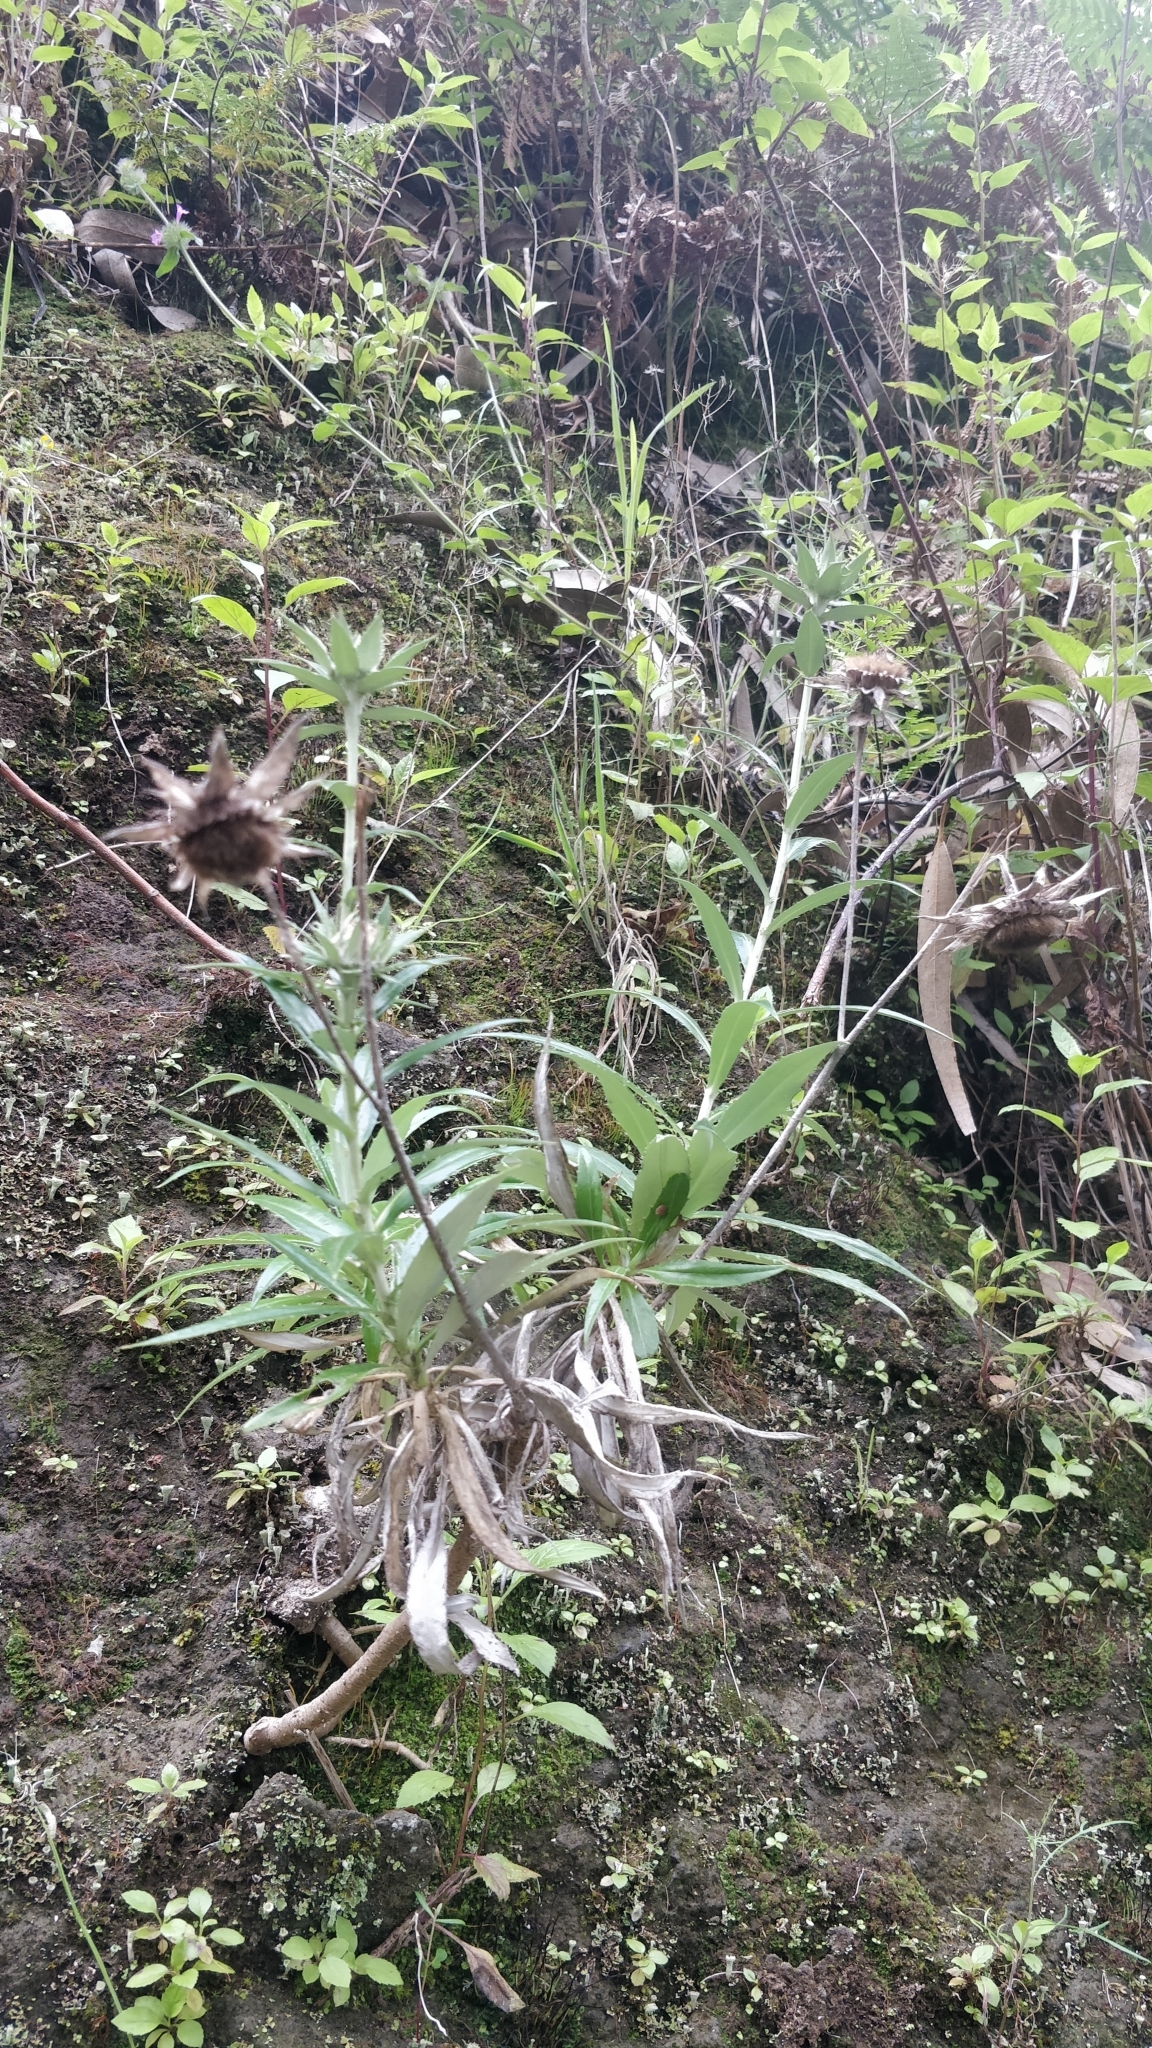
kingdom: Plantae
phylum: Tracheophyta
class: Magnoliopsida
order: Asterales
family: Asteraceae
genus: Carlina
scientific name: Carlina salicifolia
